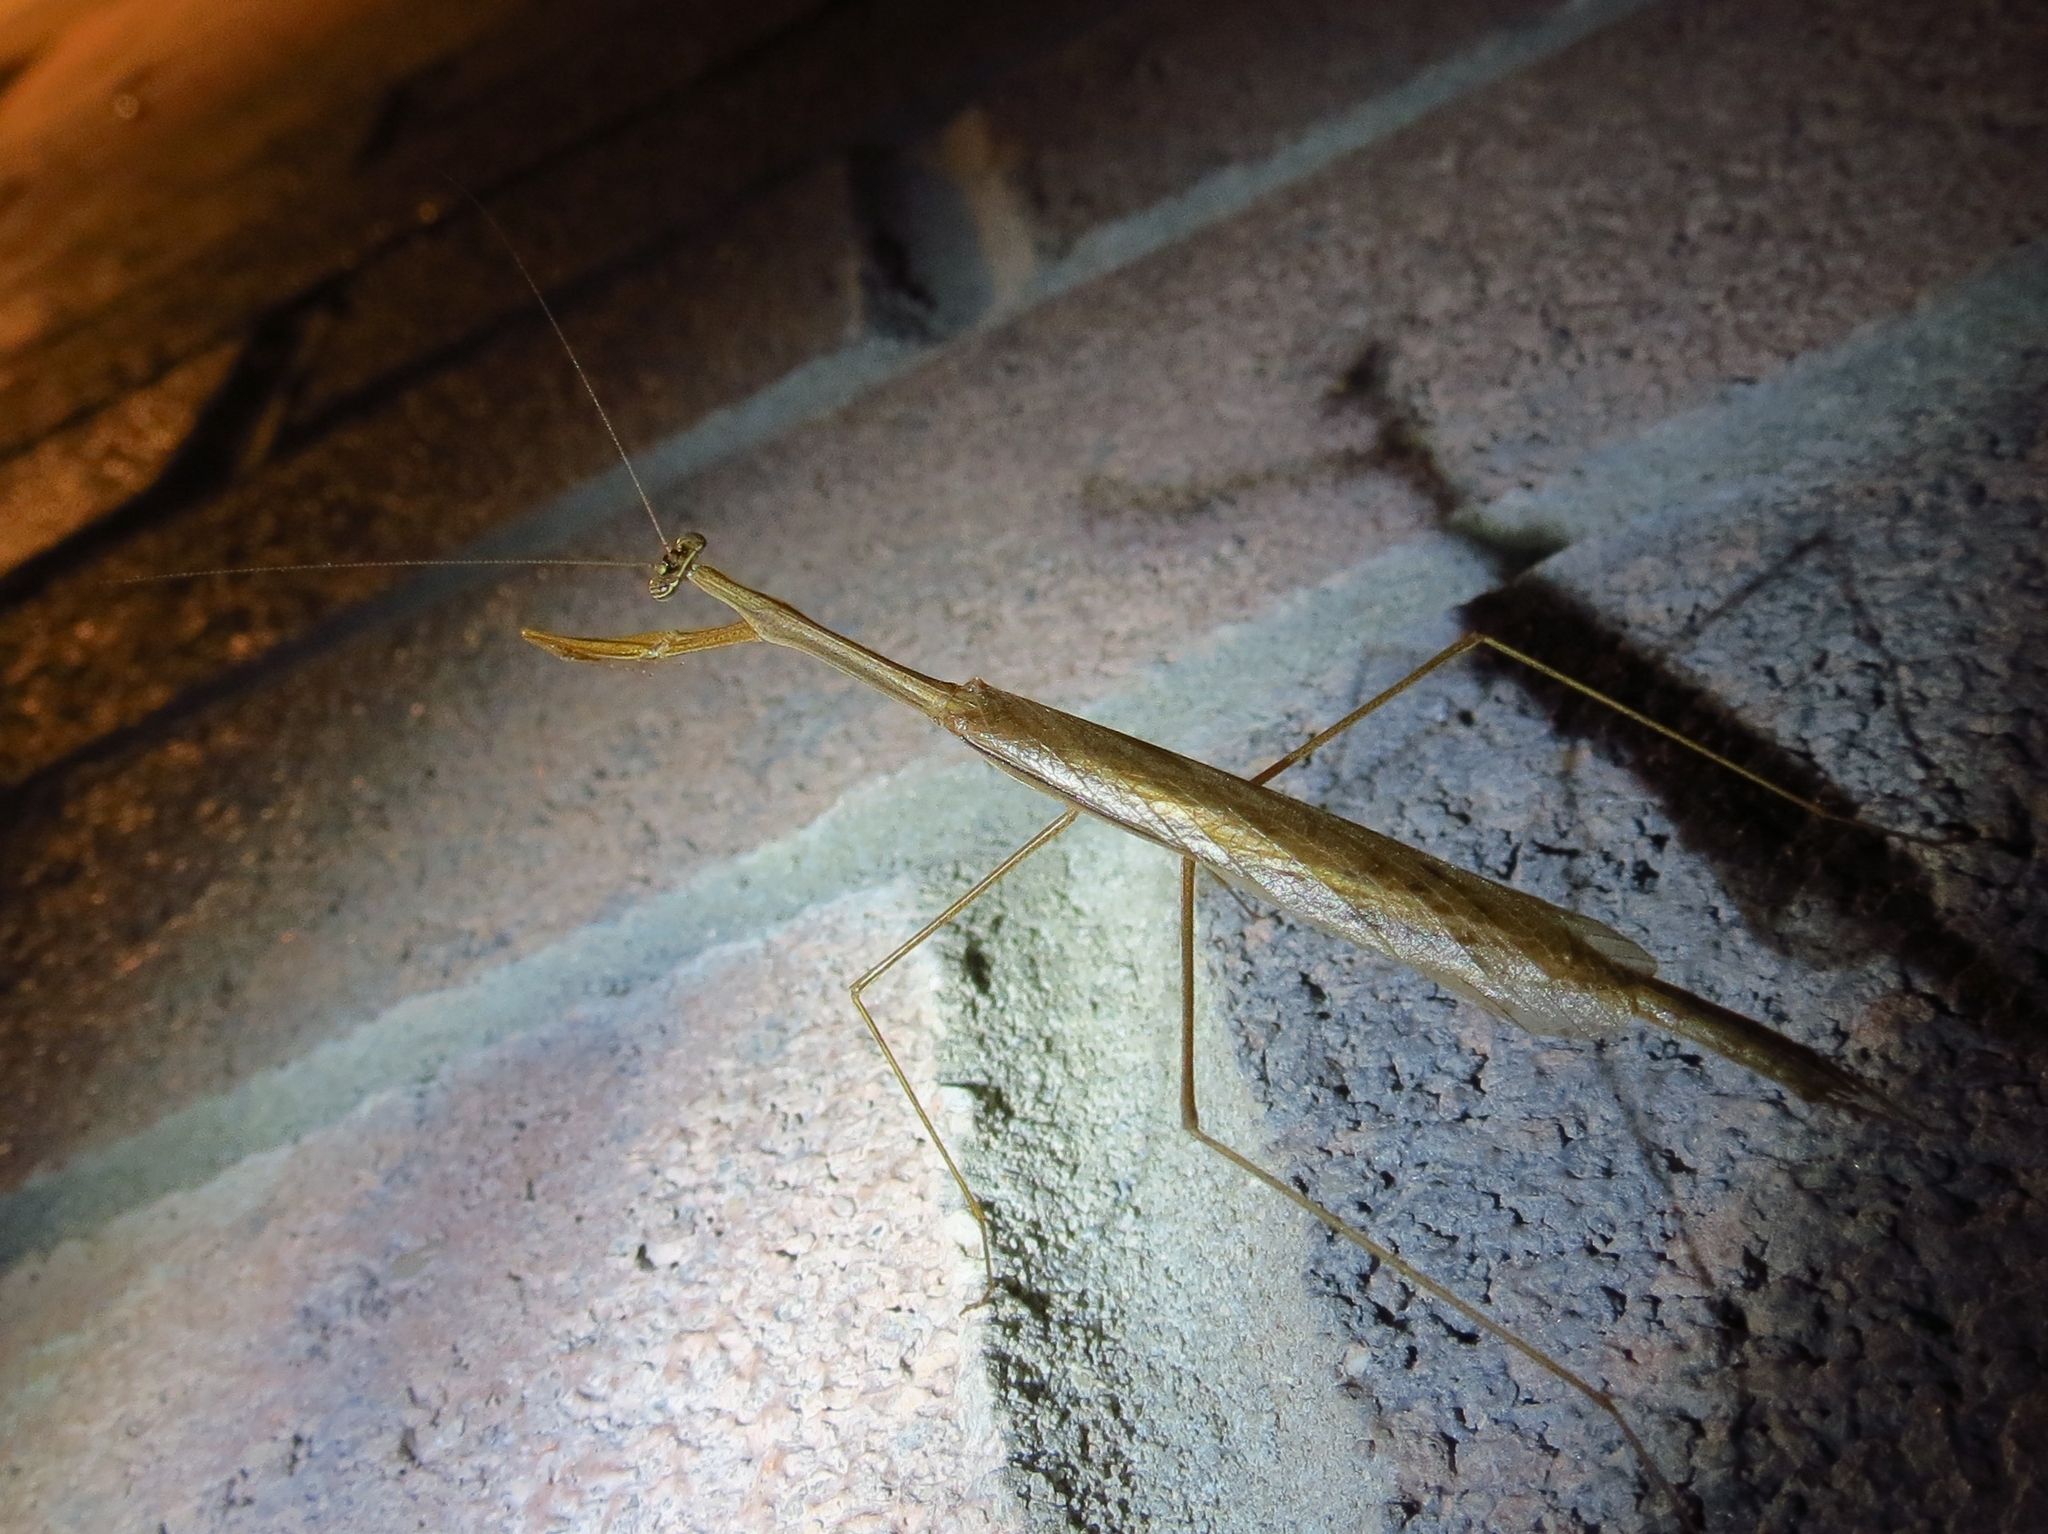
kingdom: Animalia
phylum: Arthropoda
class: Insecta
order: Mantodea
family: Thespidae
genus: Bistanta
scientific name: Bistanta mexicana
